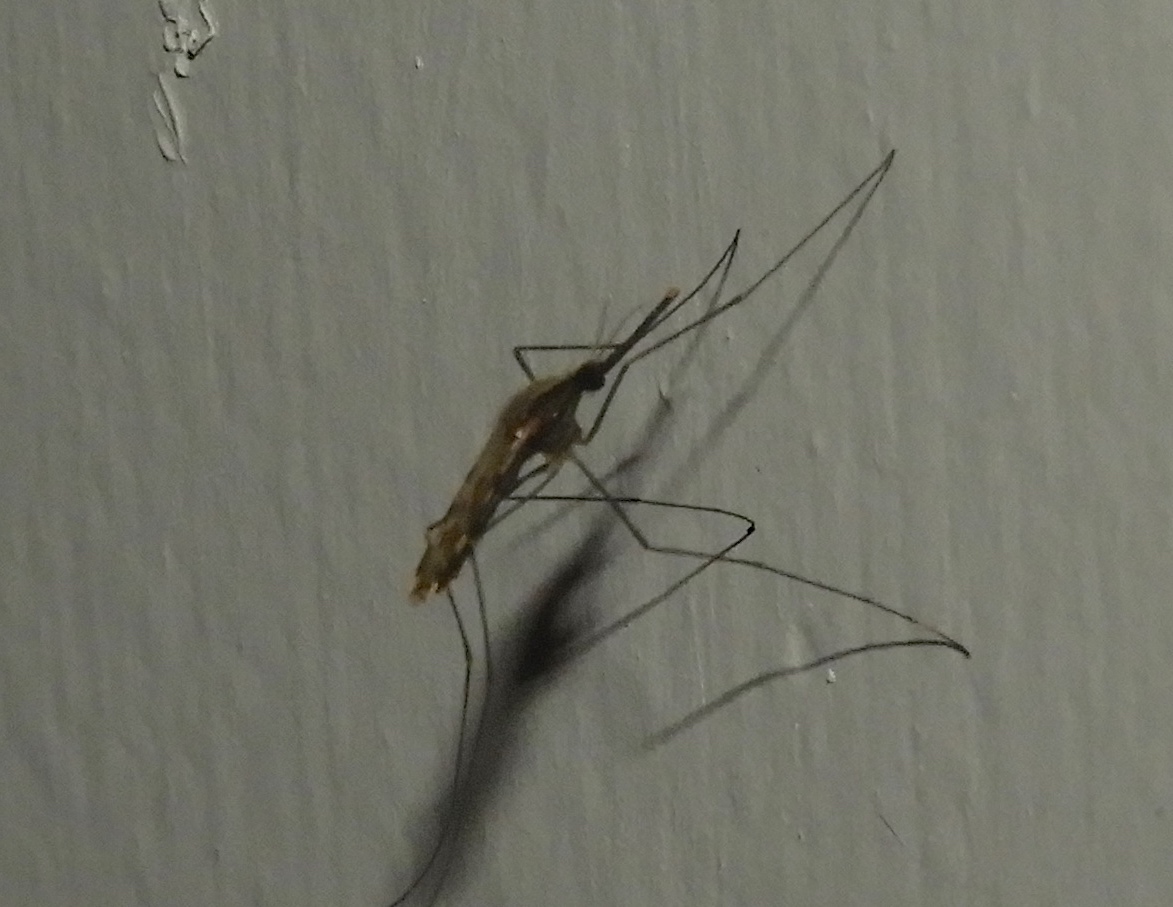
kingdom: Animalia
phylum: Arthropoda
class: Insecta
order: Diptera
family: Culicidae
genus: Anopheles
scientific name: Anopheles
